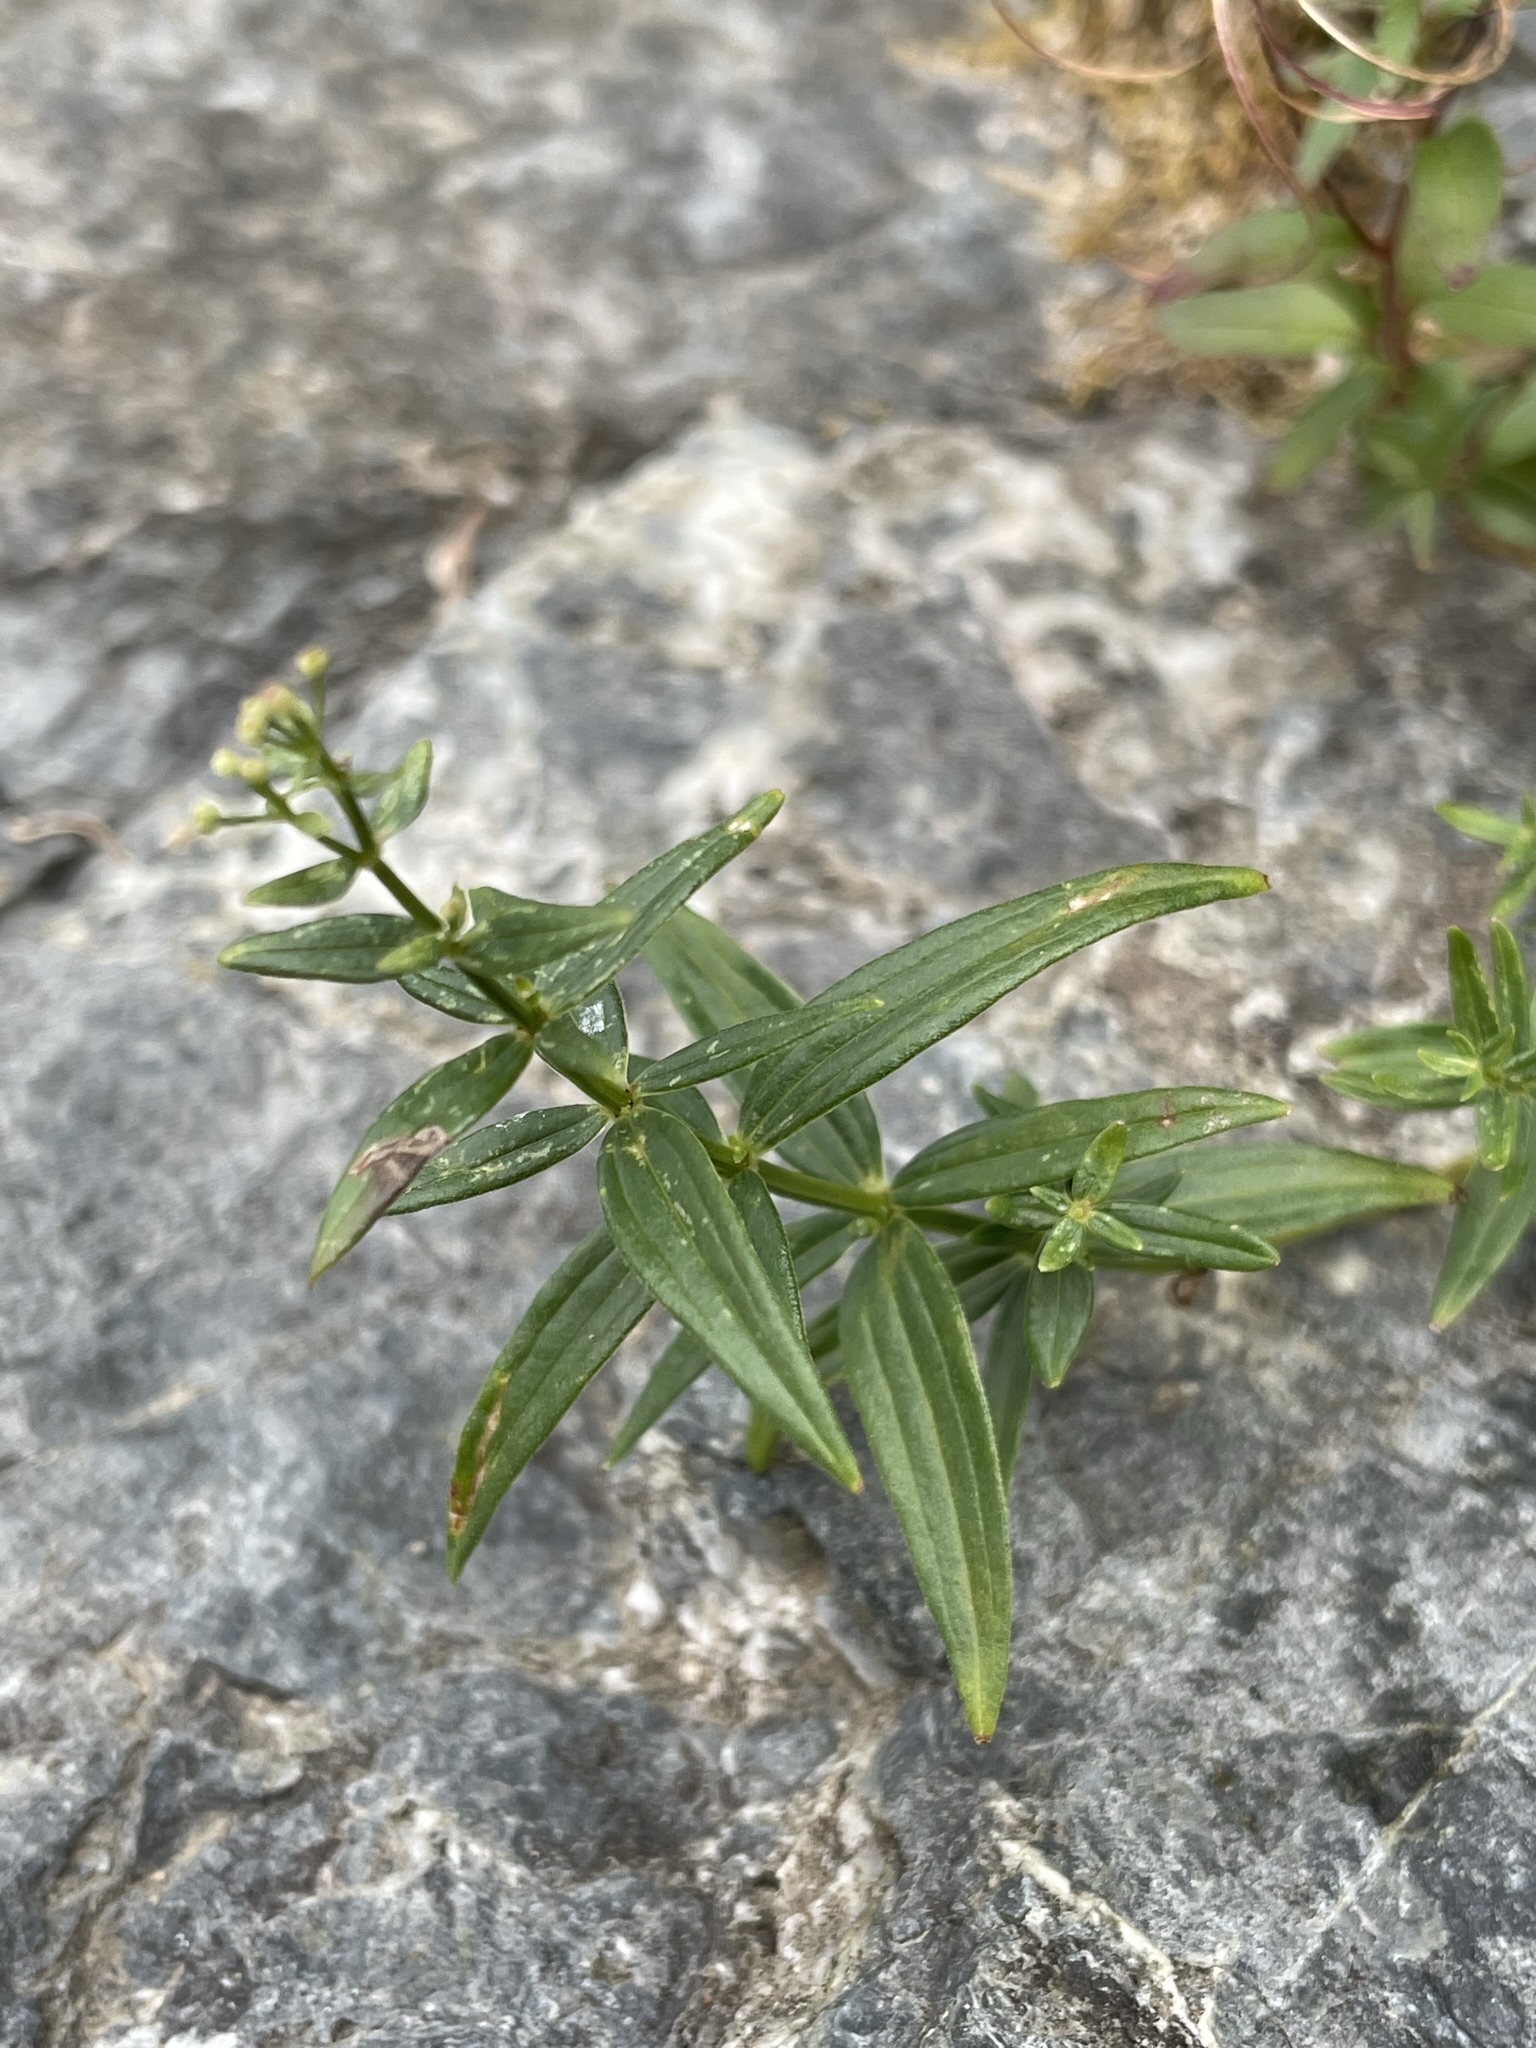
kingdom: Plantae
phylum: Tracheophyta
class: Magnoliopsida
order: Gentianales
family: Rubiaceae
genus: Galium
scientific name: Galium boreale
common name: Northern bedstraw
